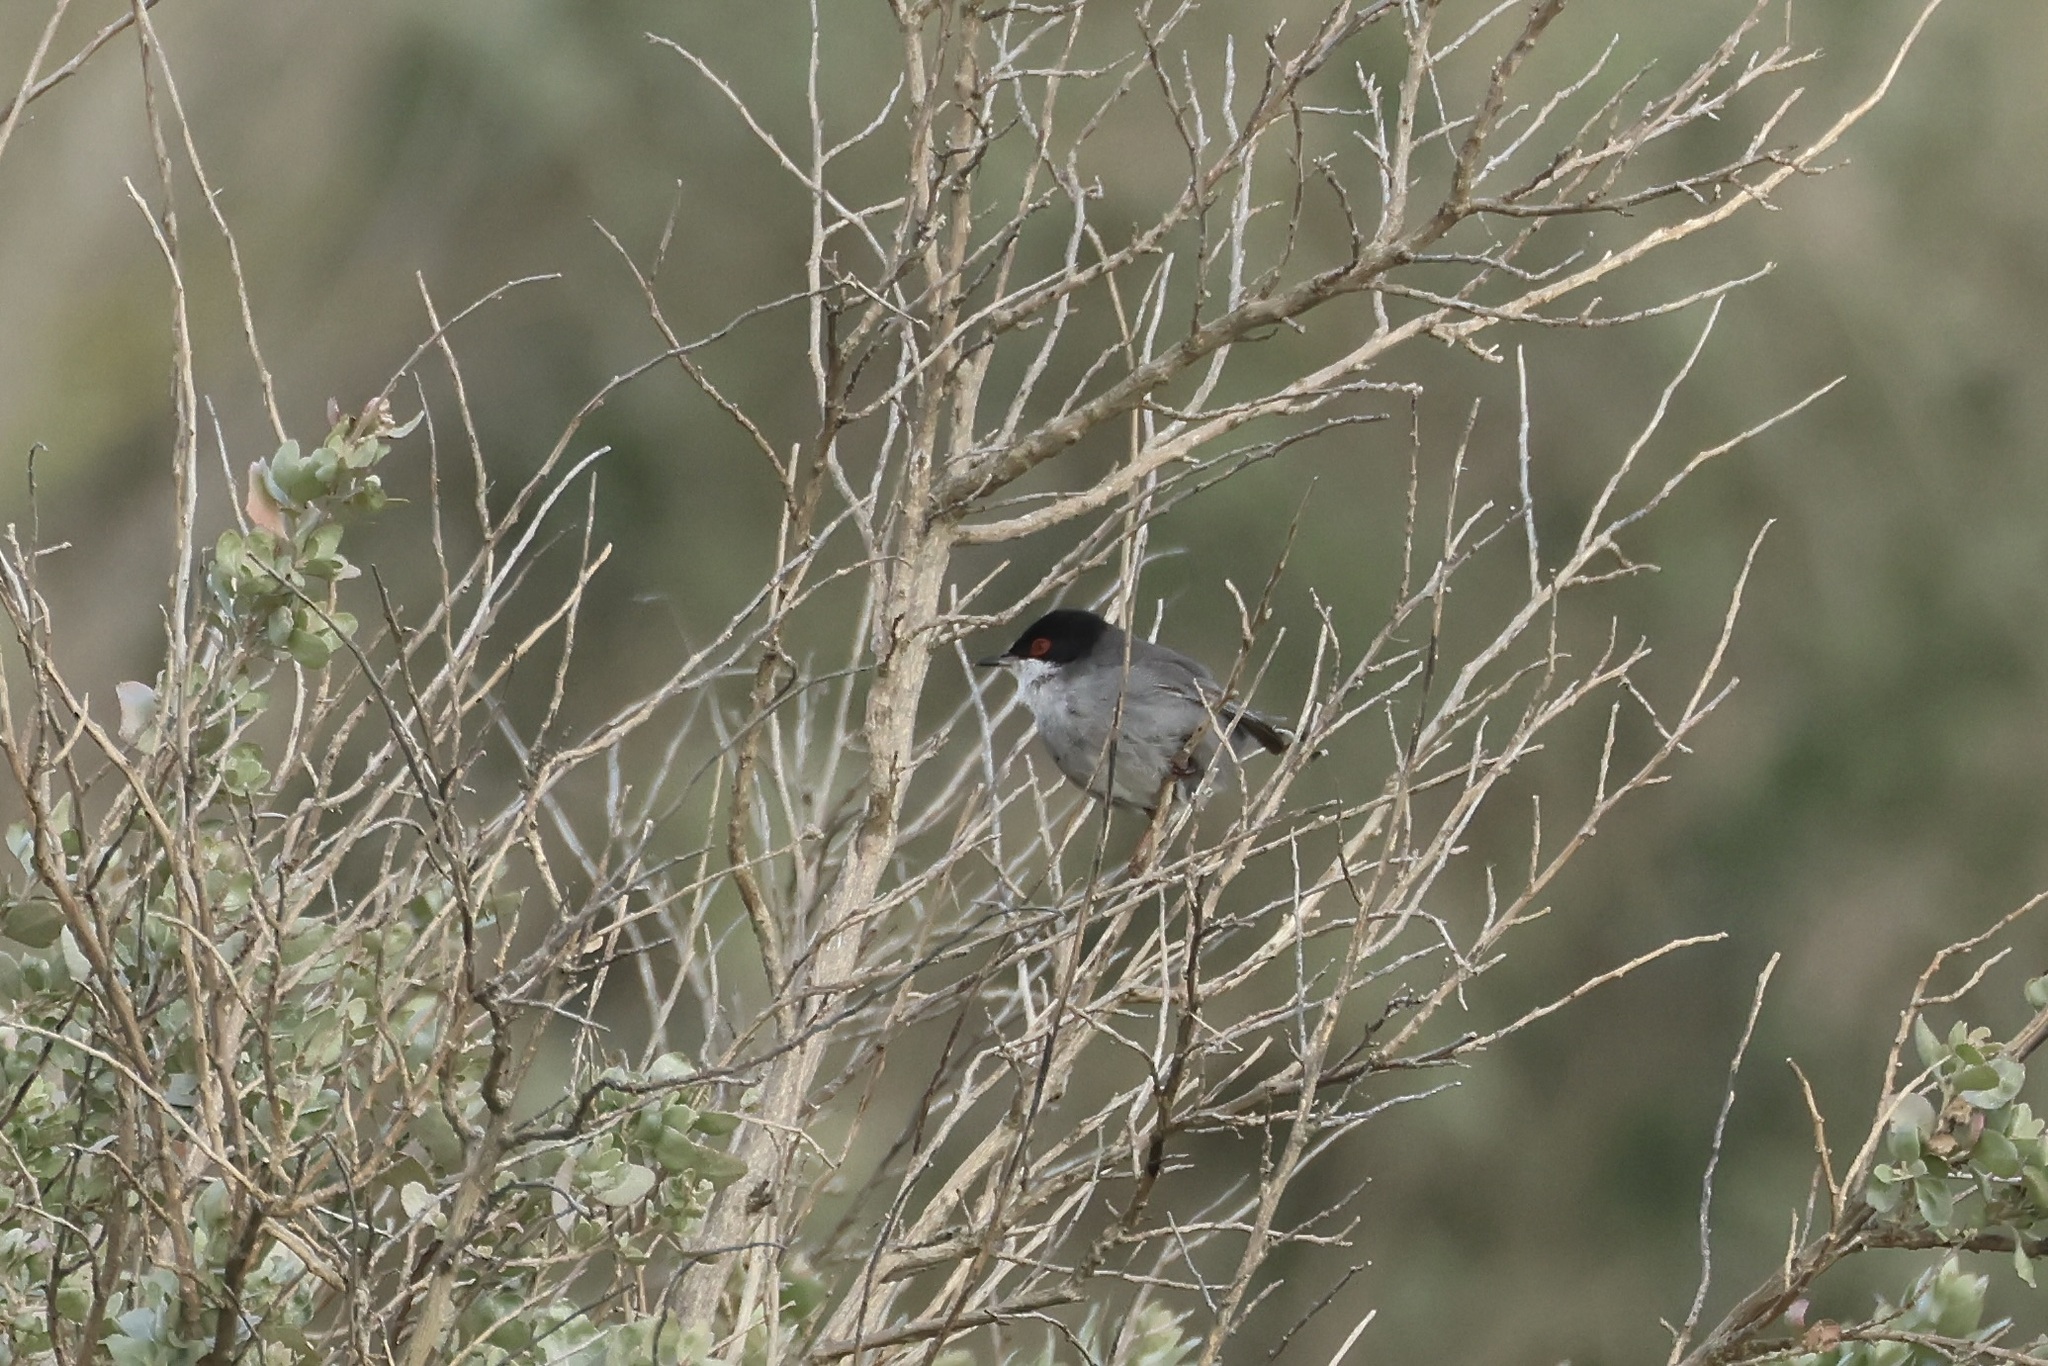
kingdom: Animalia
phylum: Chordata
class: Aves
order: Passeriformes
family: Sylviidae
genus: Curruca
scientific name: Curruca melanocephala
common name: Sardinian warbler
